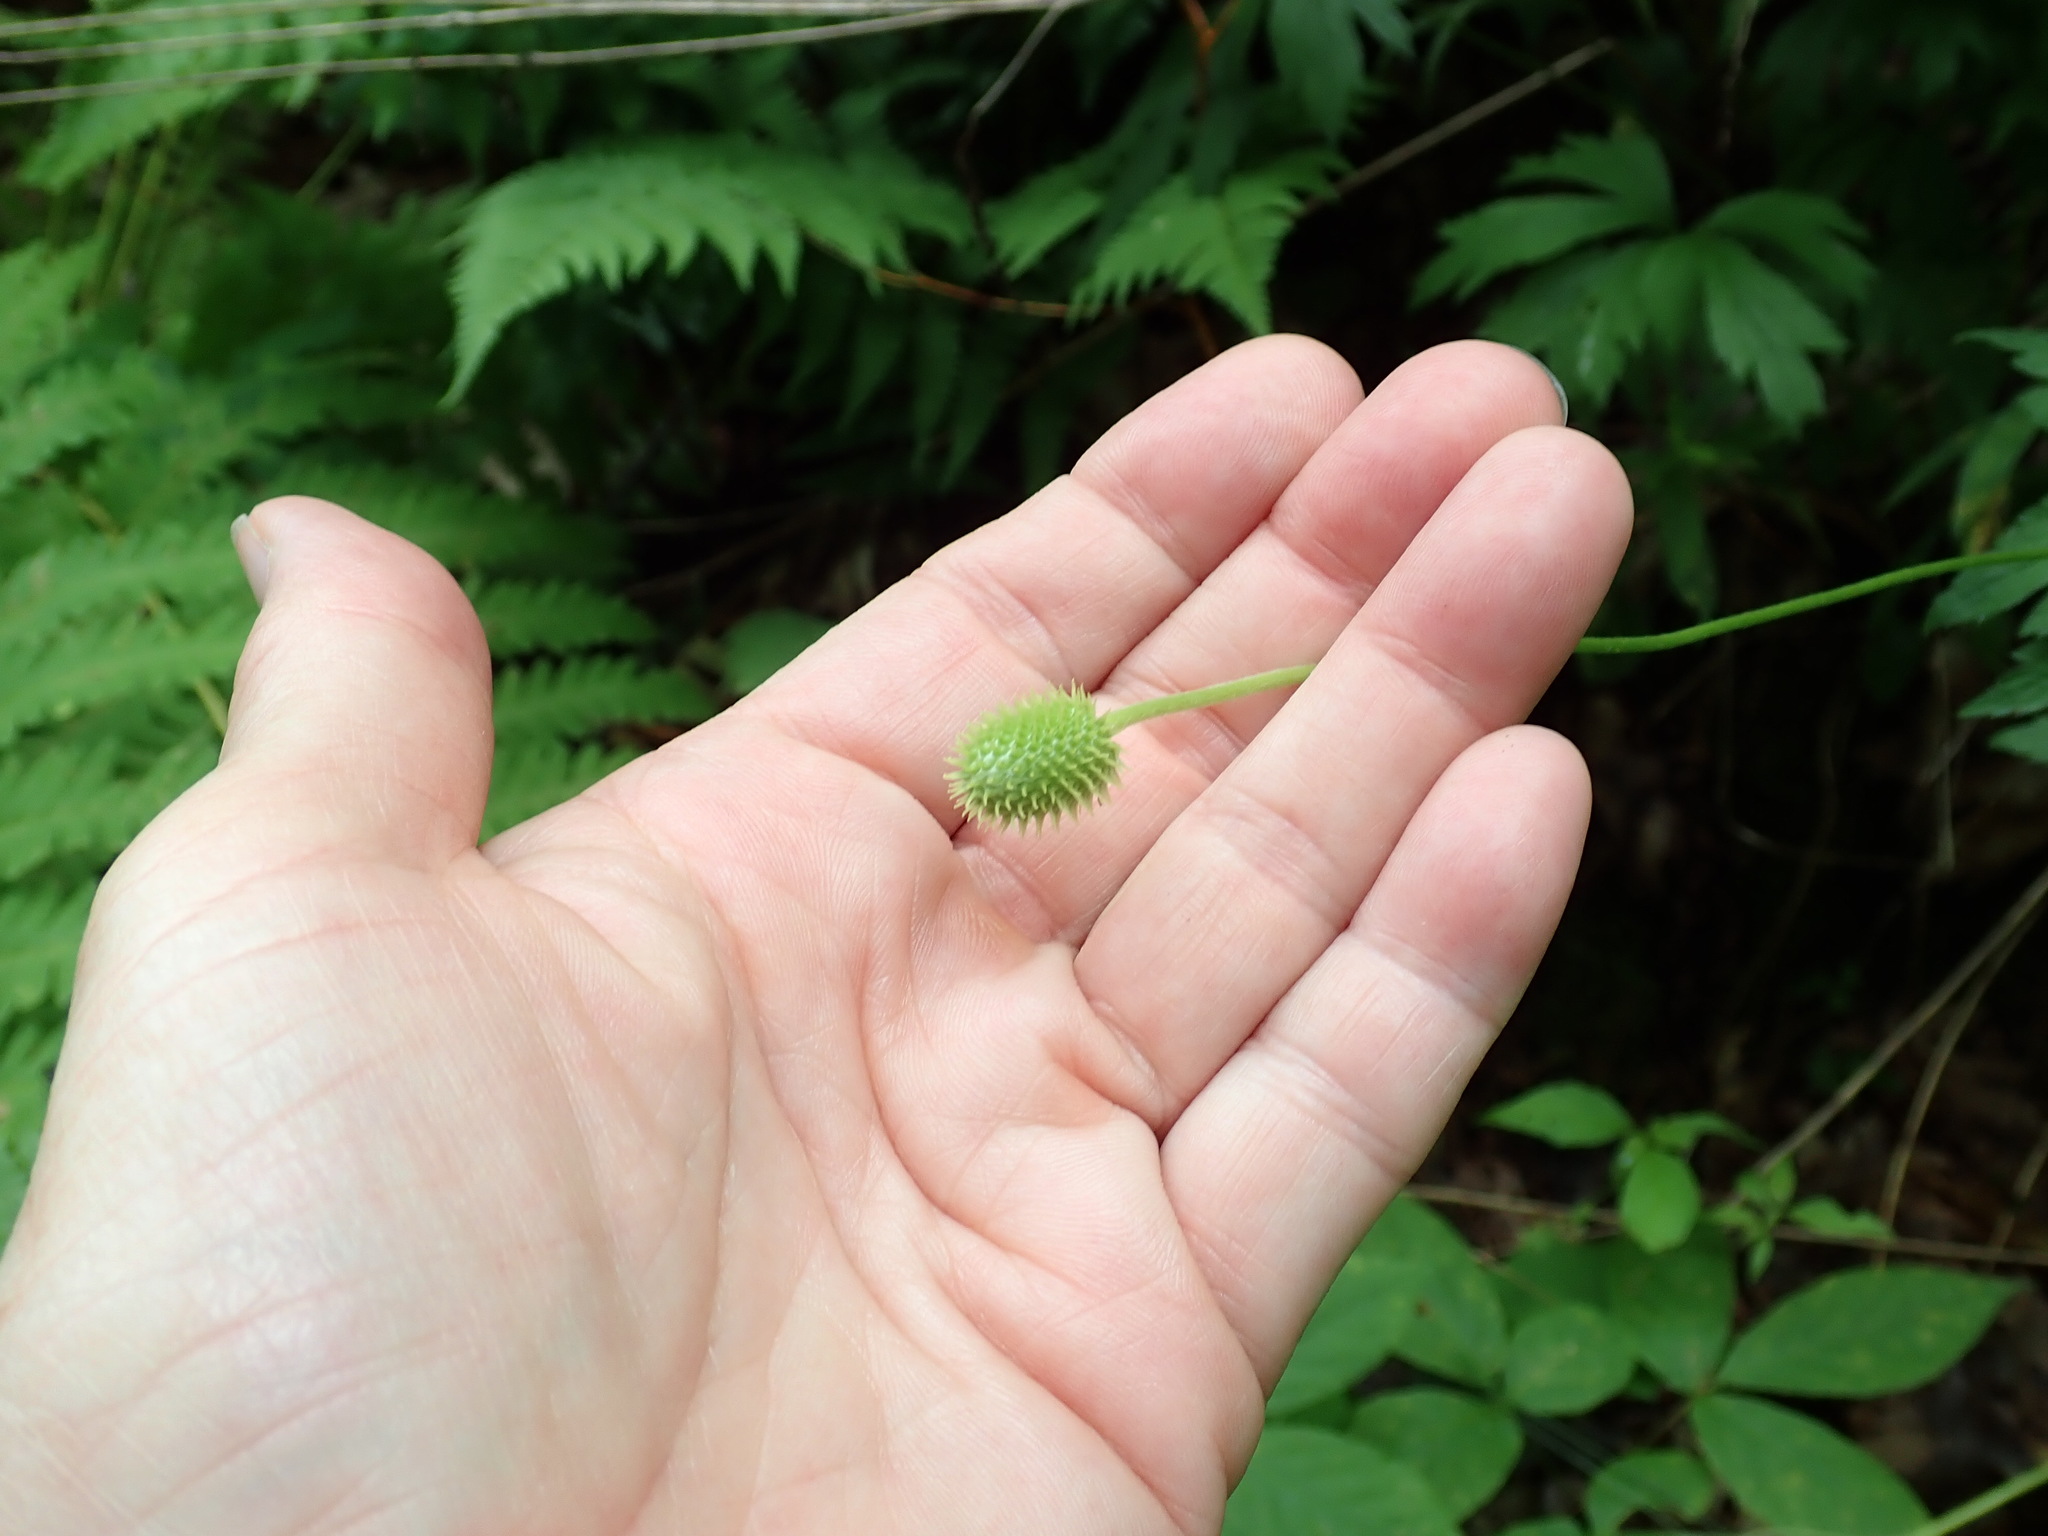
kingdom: Plantae
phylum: Tracheophyta
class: Magnoliopsida
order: Ranunculales
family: Ranunculaceae
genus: Anemone
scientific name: Anemone virginiana
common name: Tall anemone
